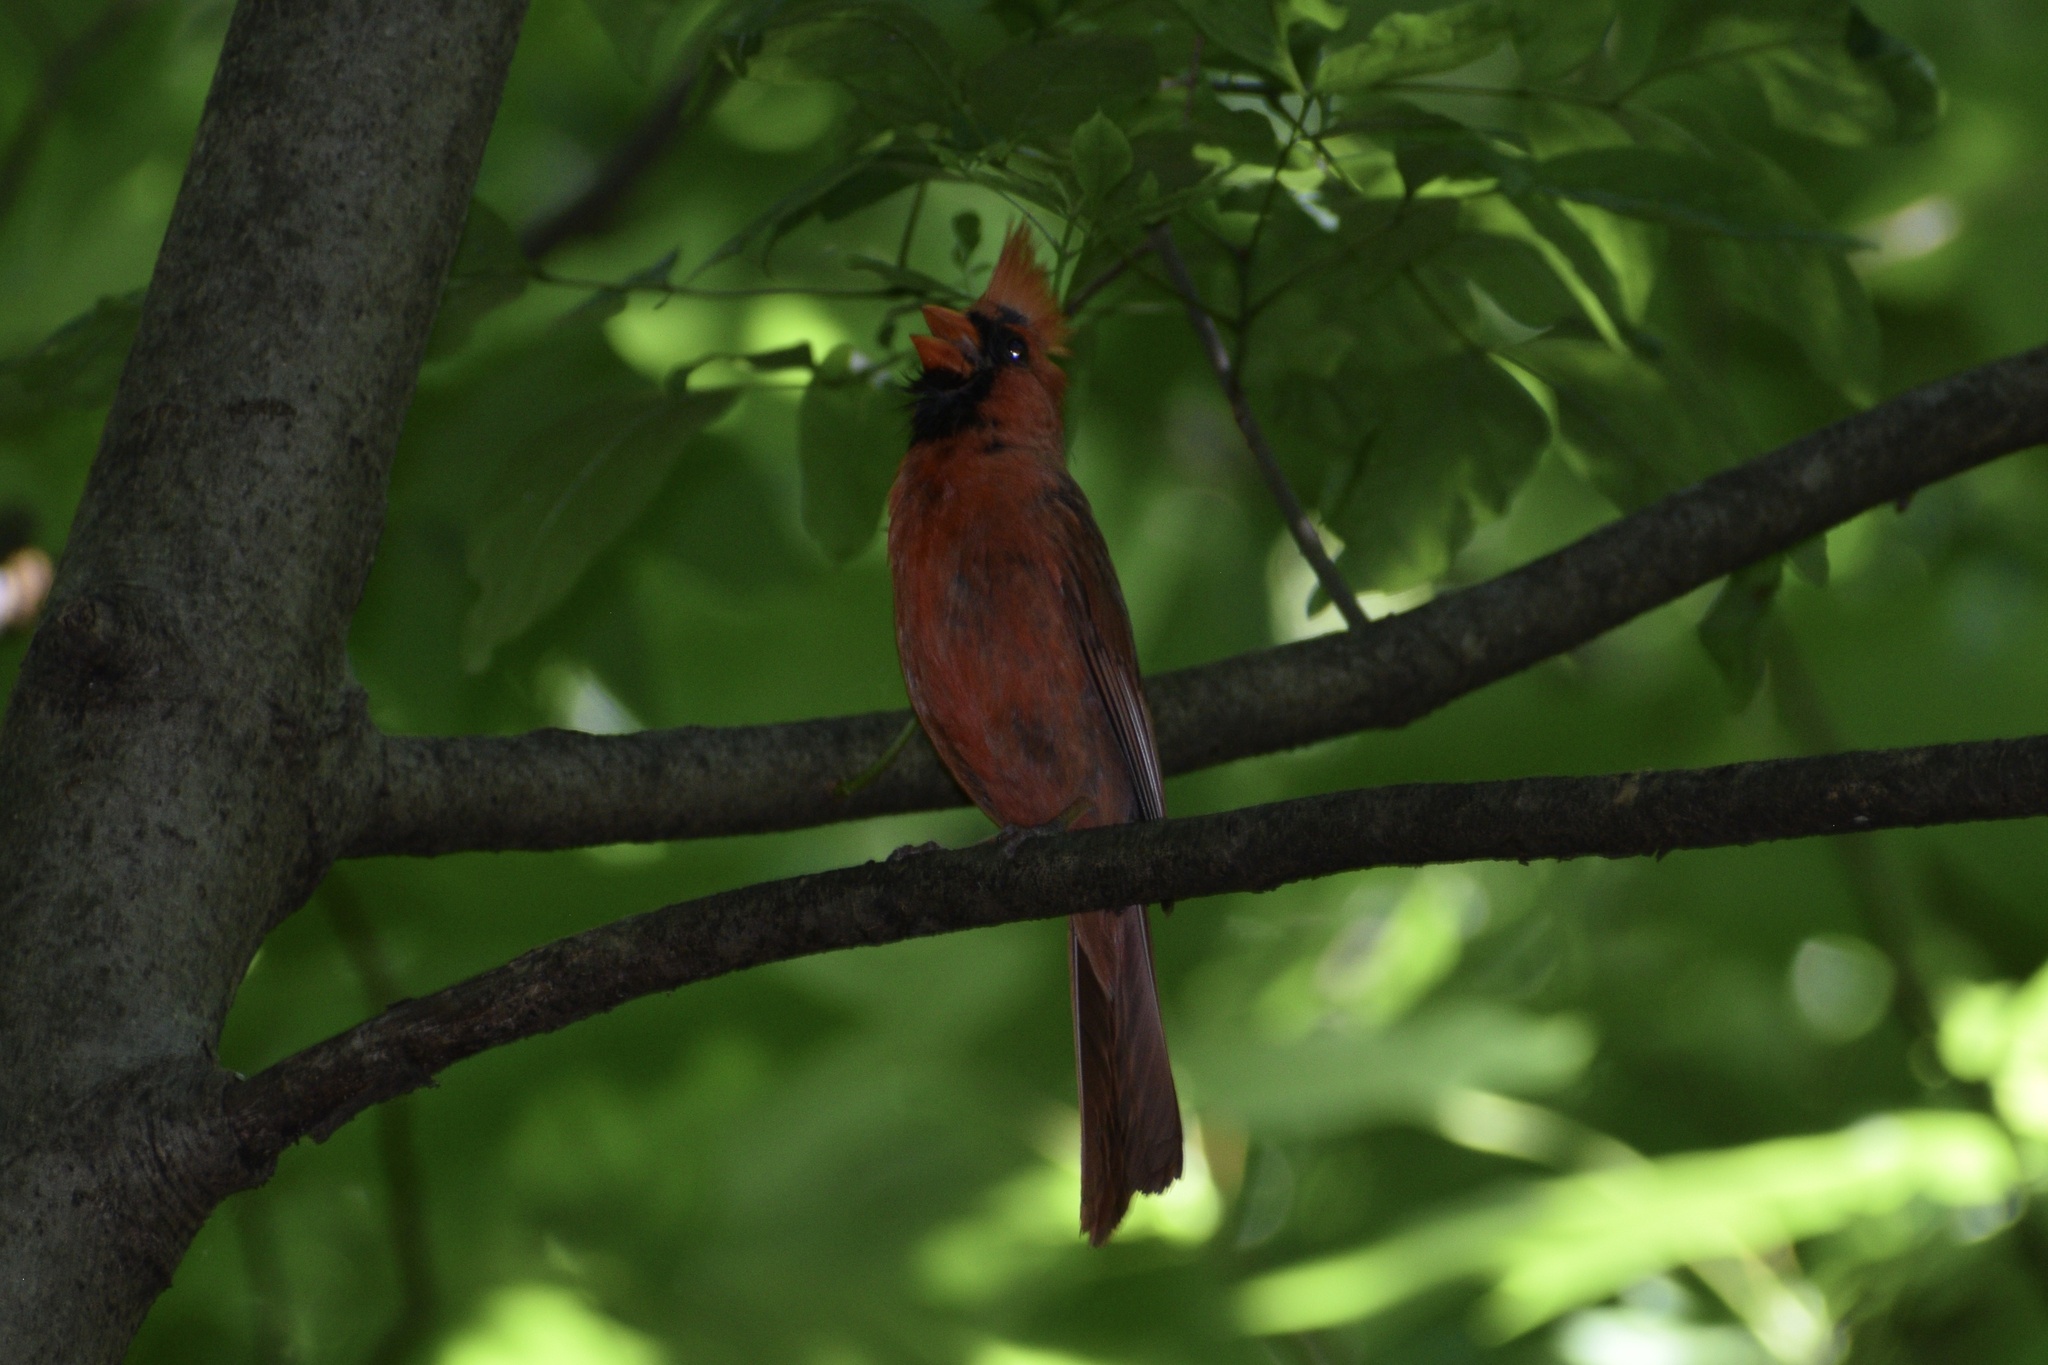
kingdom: Animalia
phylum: Chordata
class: Aves
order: Passeriformes
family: Cardinalidae
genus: Cardinalis
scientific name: Cardinalis cardinalis
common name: Northern cardinal
